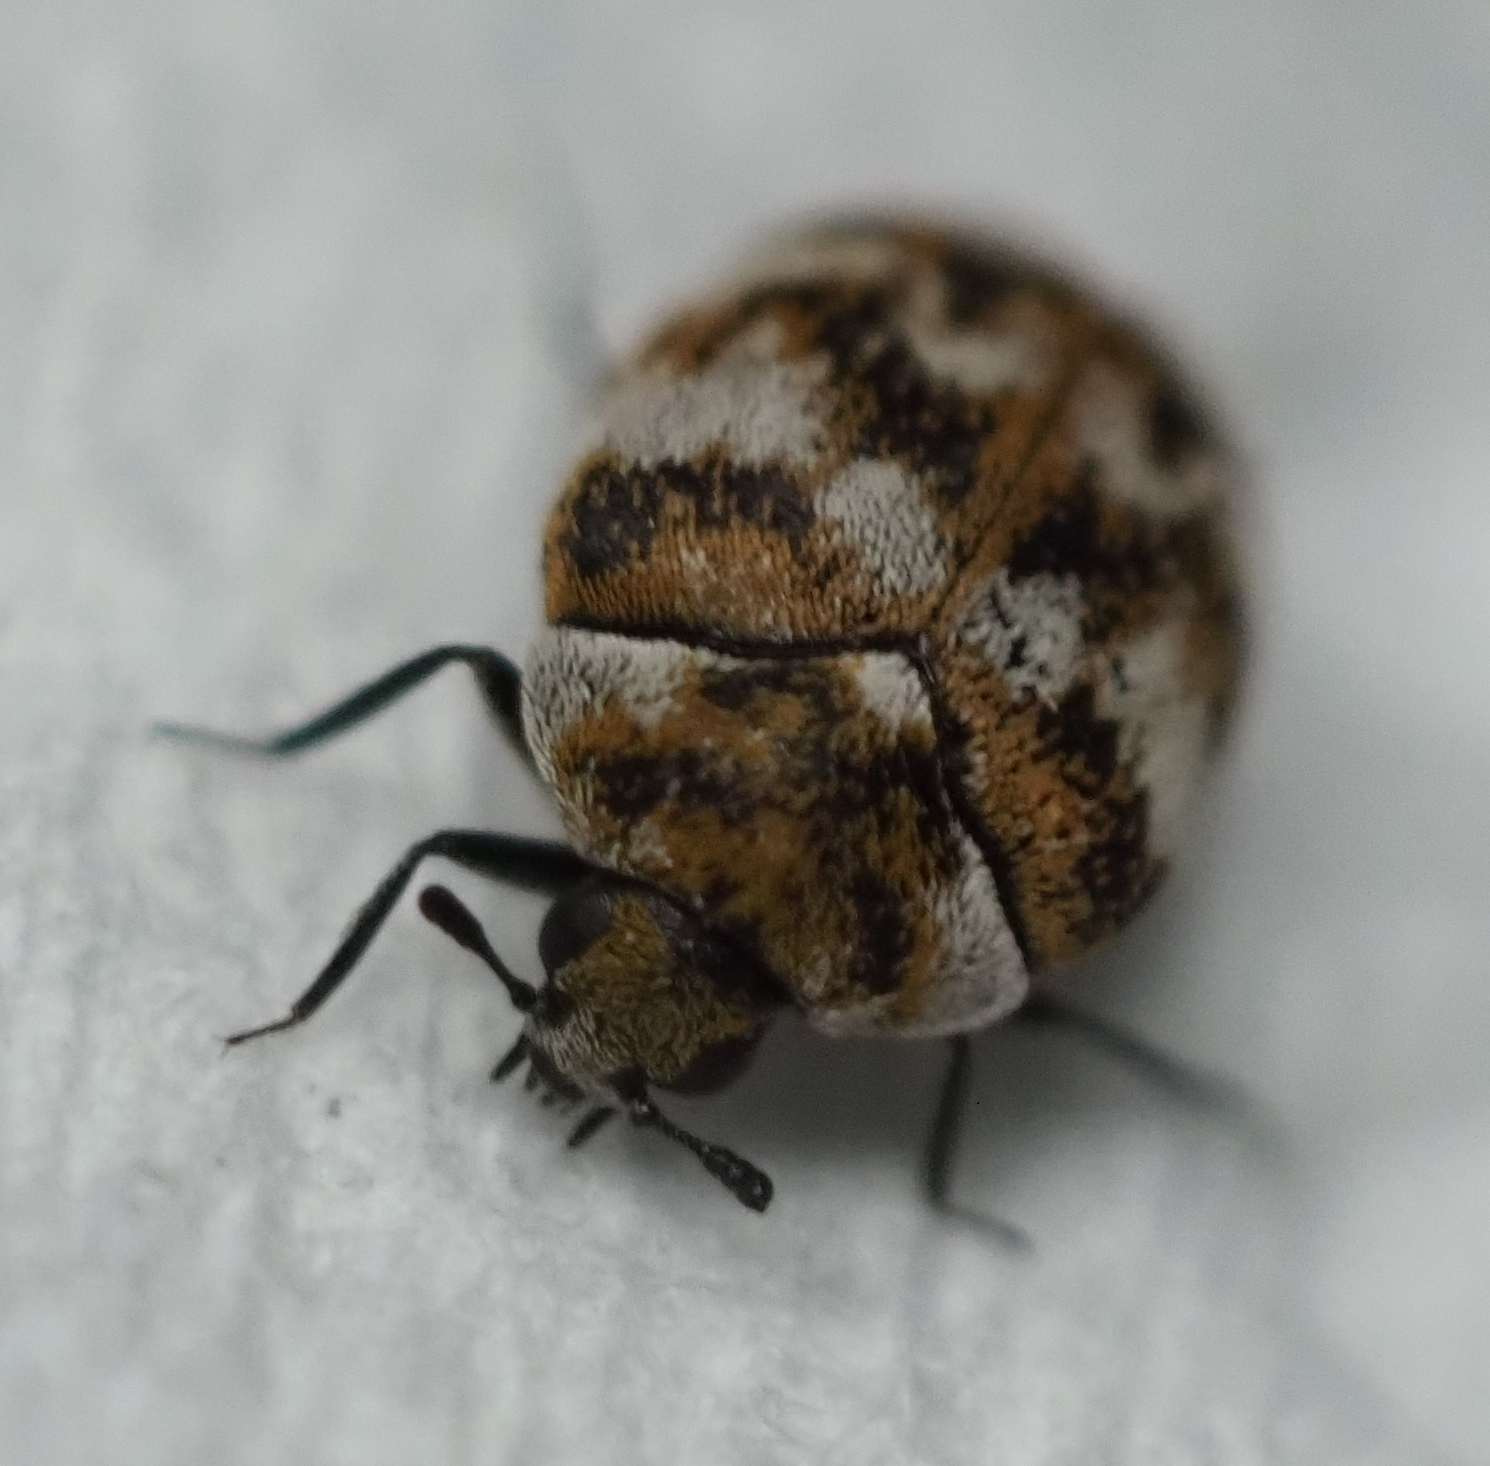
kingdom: Animalia
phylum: Arthropoda
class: Insecta
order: Coleoptera
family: Dermestidae
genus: Anthrenus
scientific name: Anthrenus verbasci
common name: Varied carpet beetle
